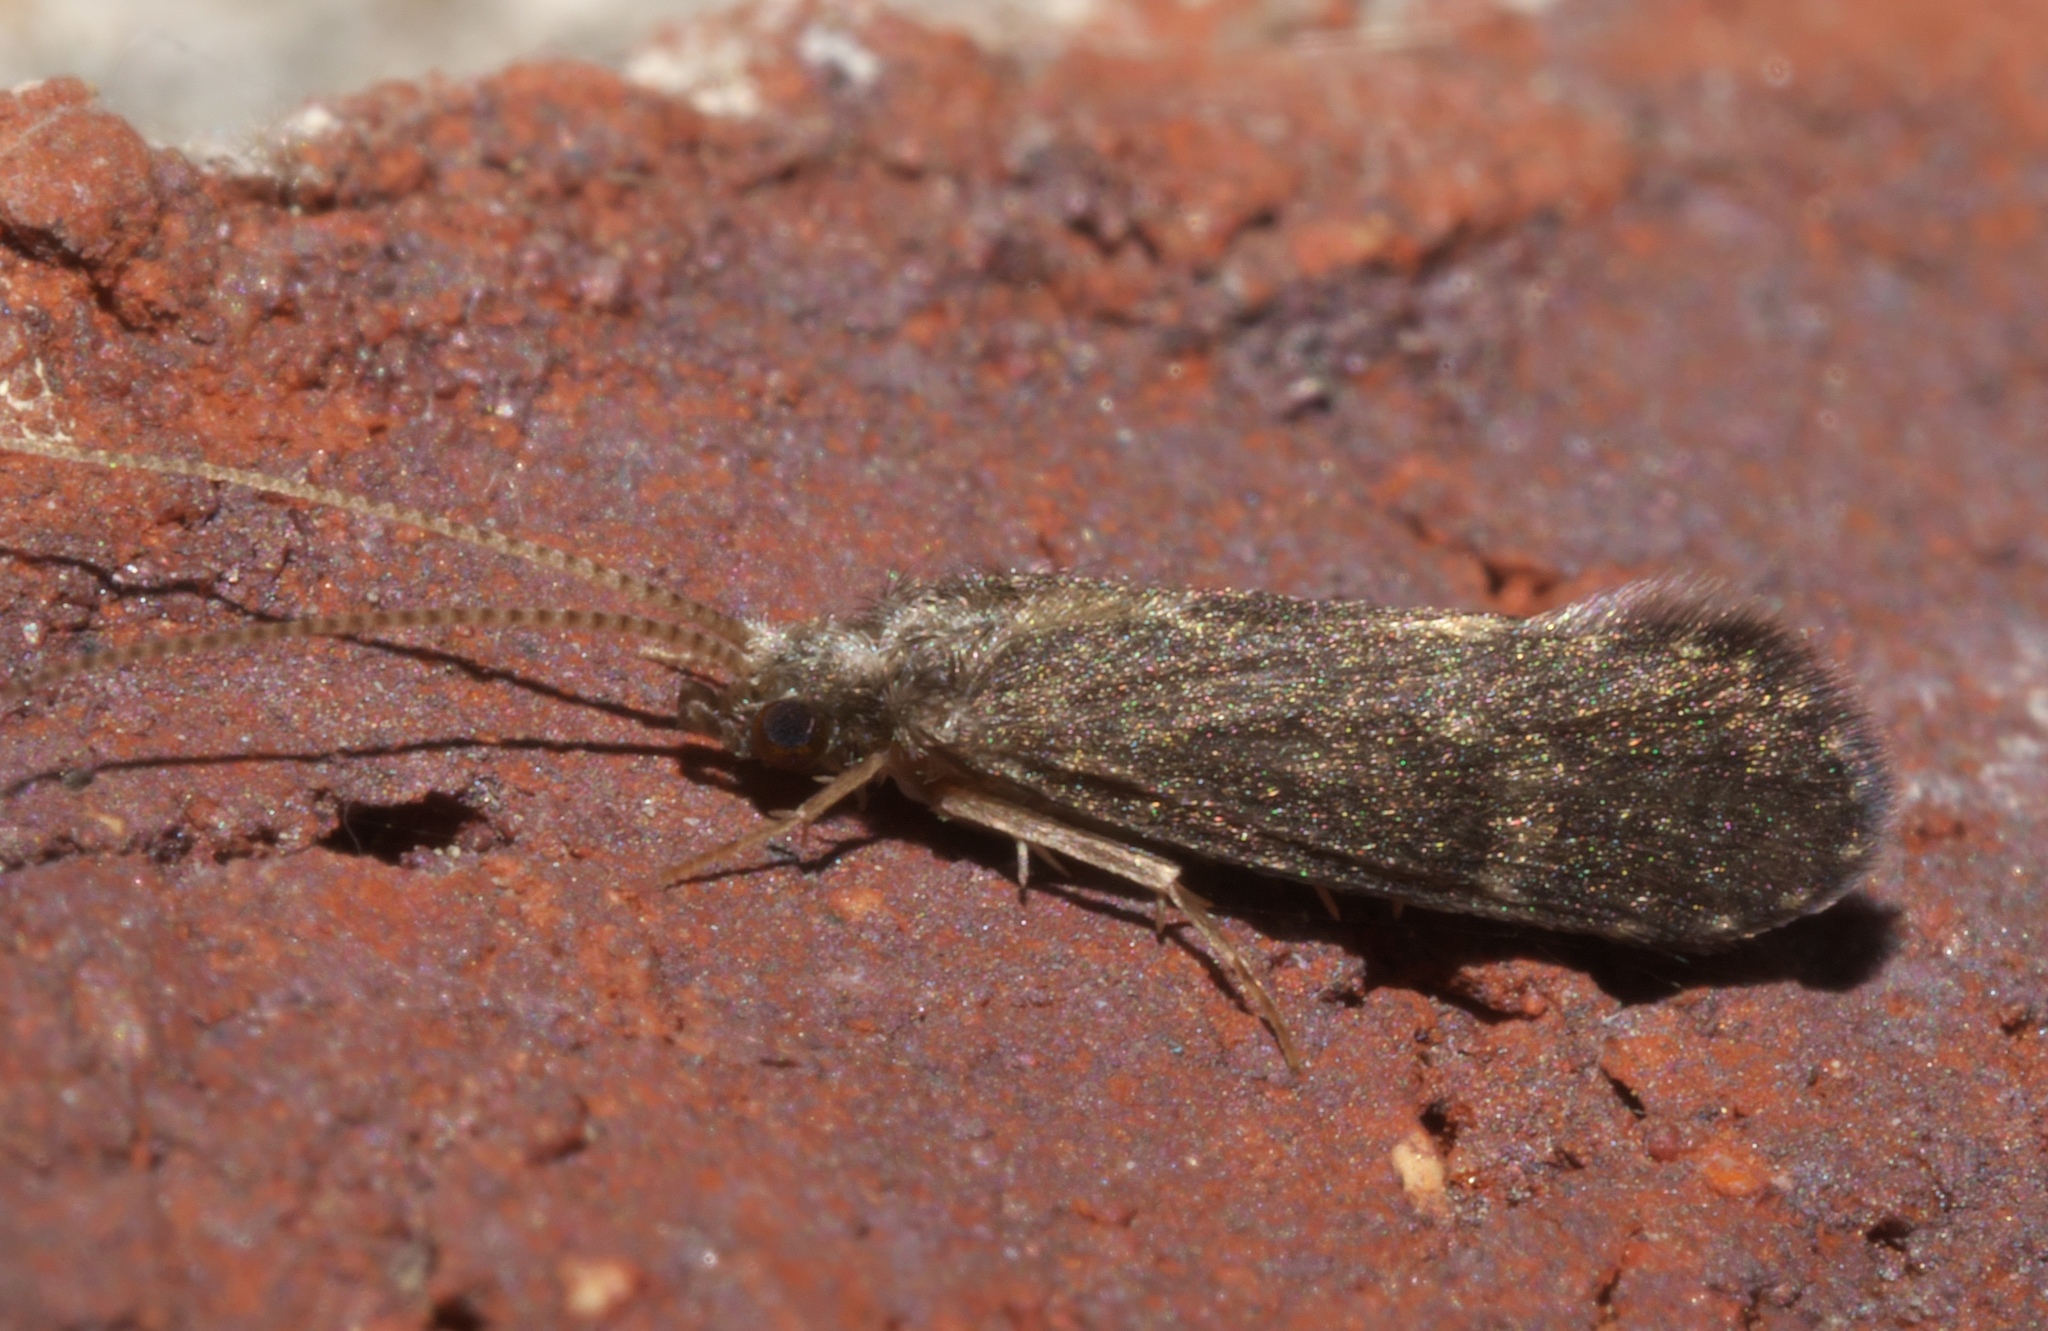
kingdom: Animalia
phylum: Arthropoda
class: Insecta
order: Trichoptera
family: Polycentropodidae
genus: Cyrnellus
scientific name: Cyrnellus fraternus
